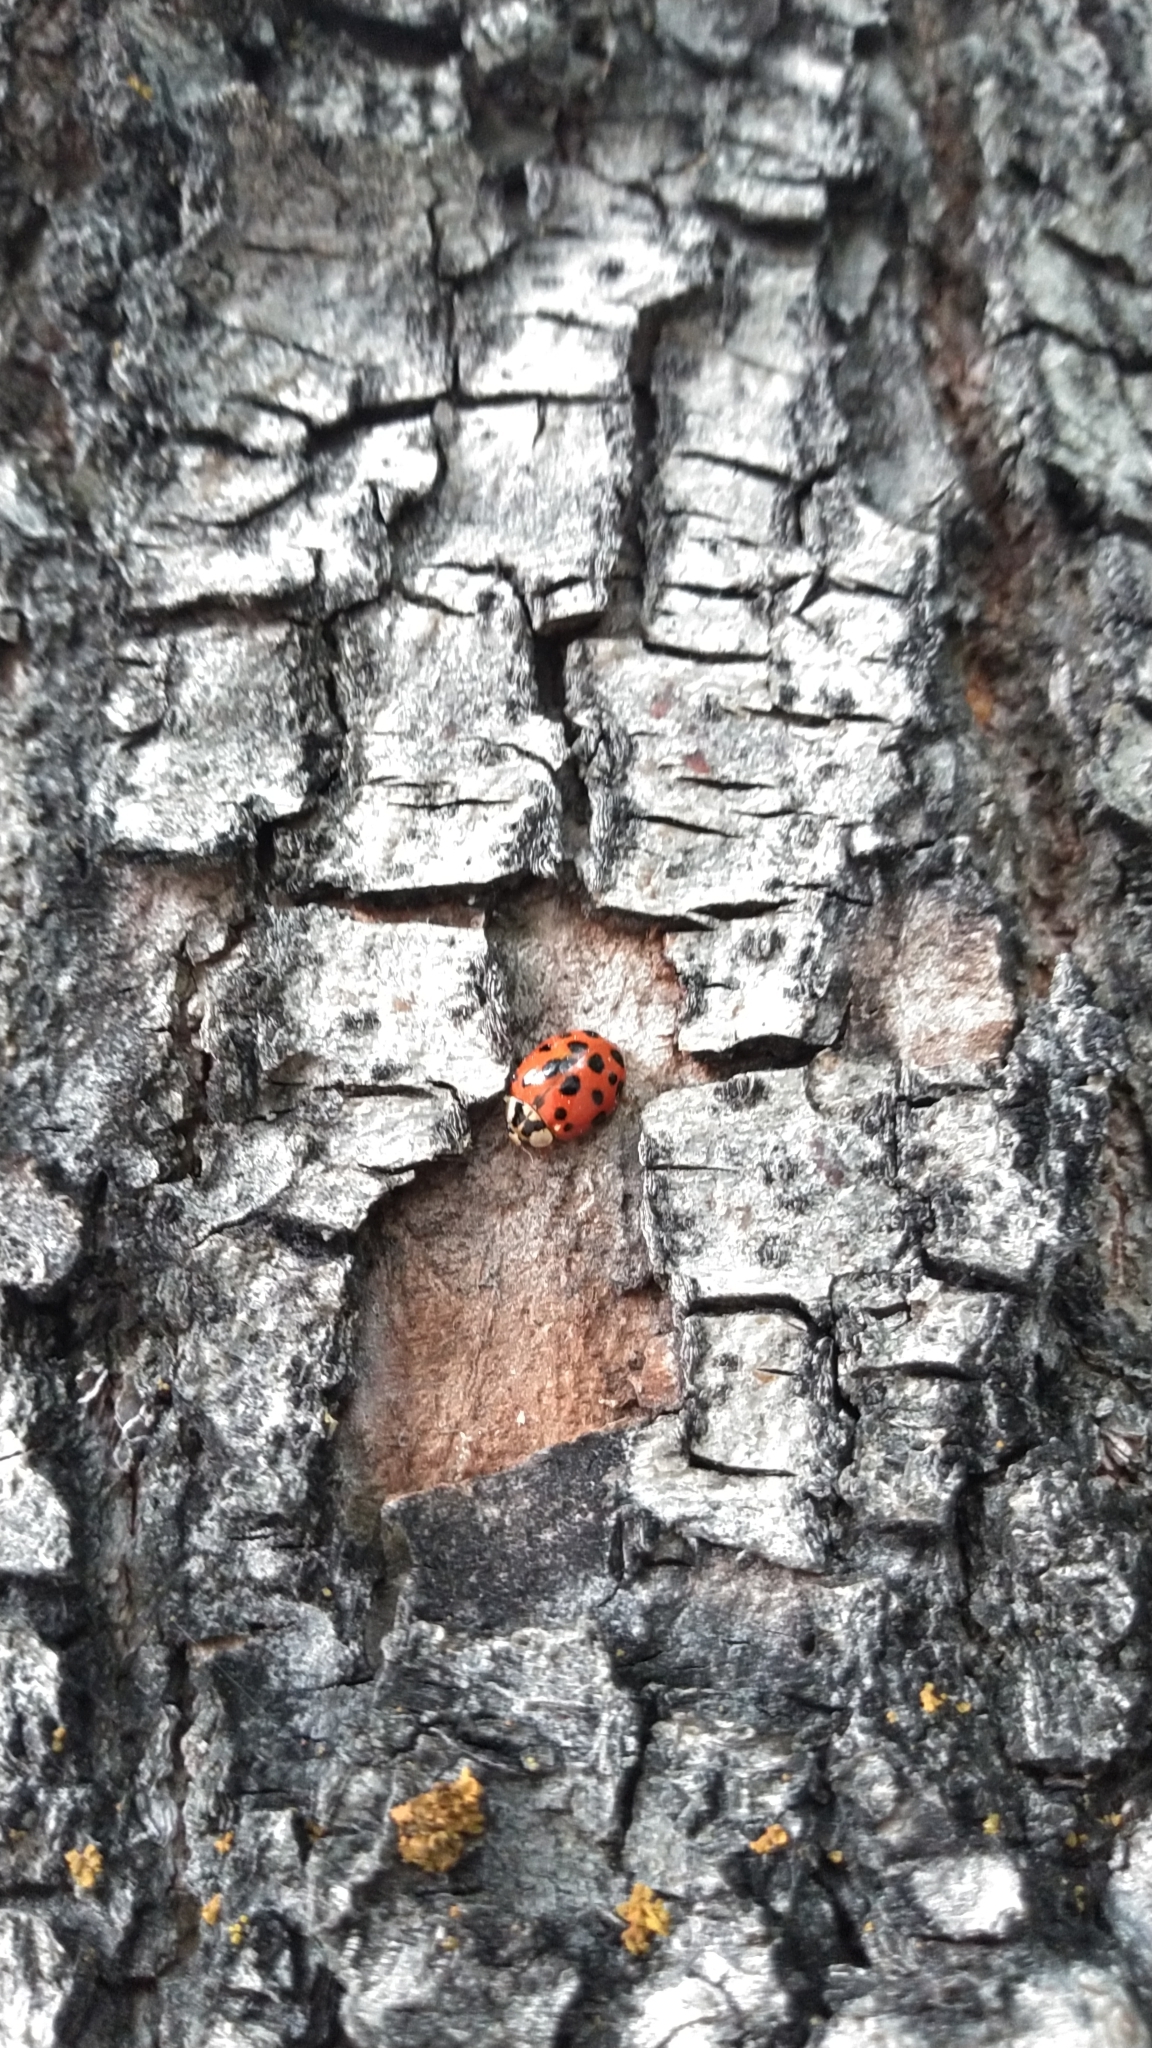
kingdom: Animalia
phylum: Arthropoda
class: Insecta
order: Coleoptera
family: Coccinellidae
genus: Harmonia
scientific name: Harmonia axyridis
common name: Harlequin ladybird
